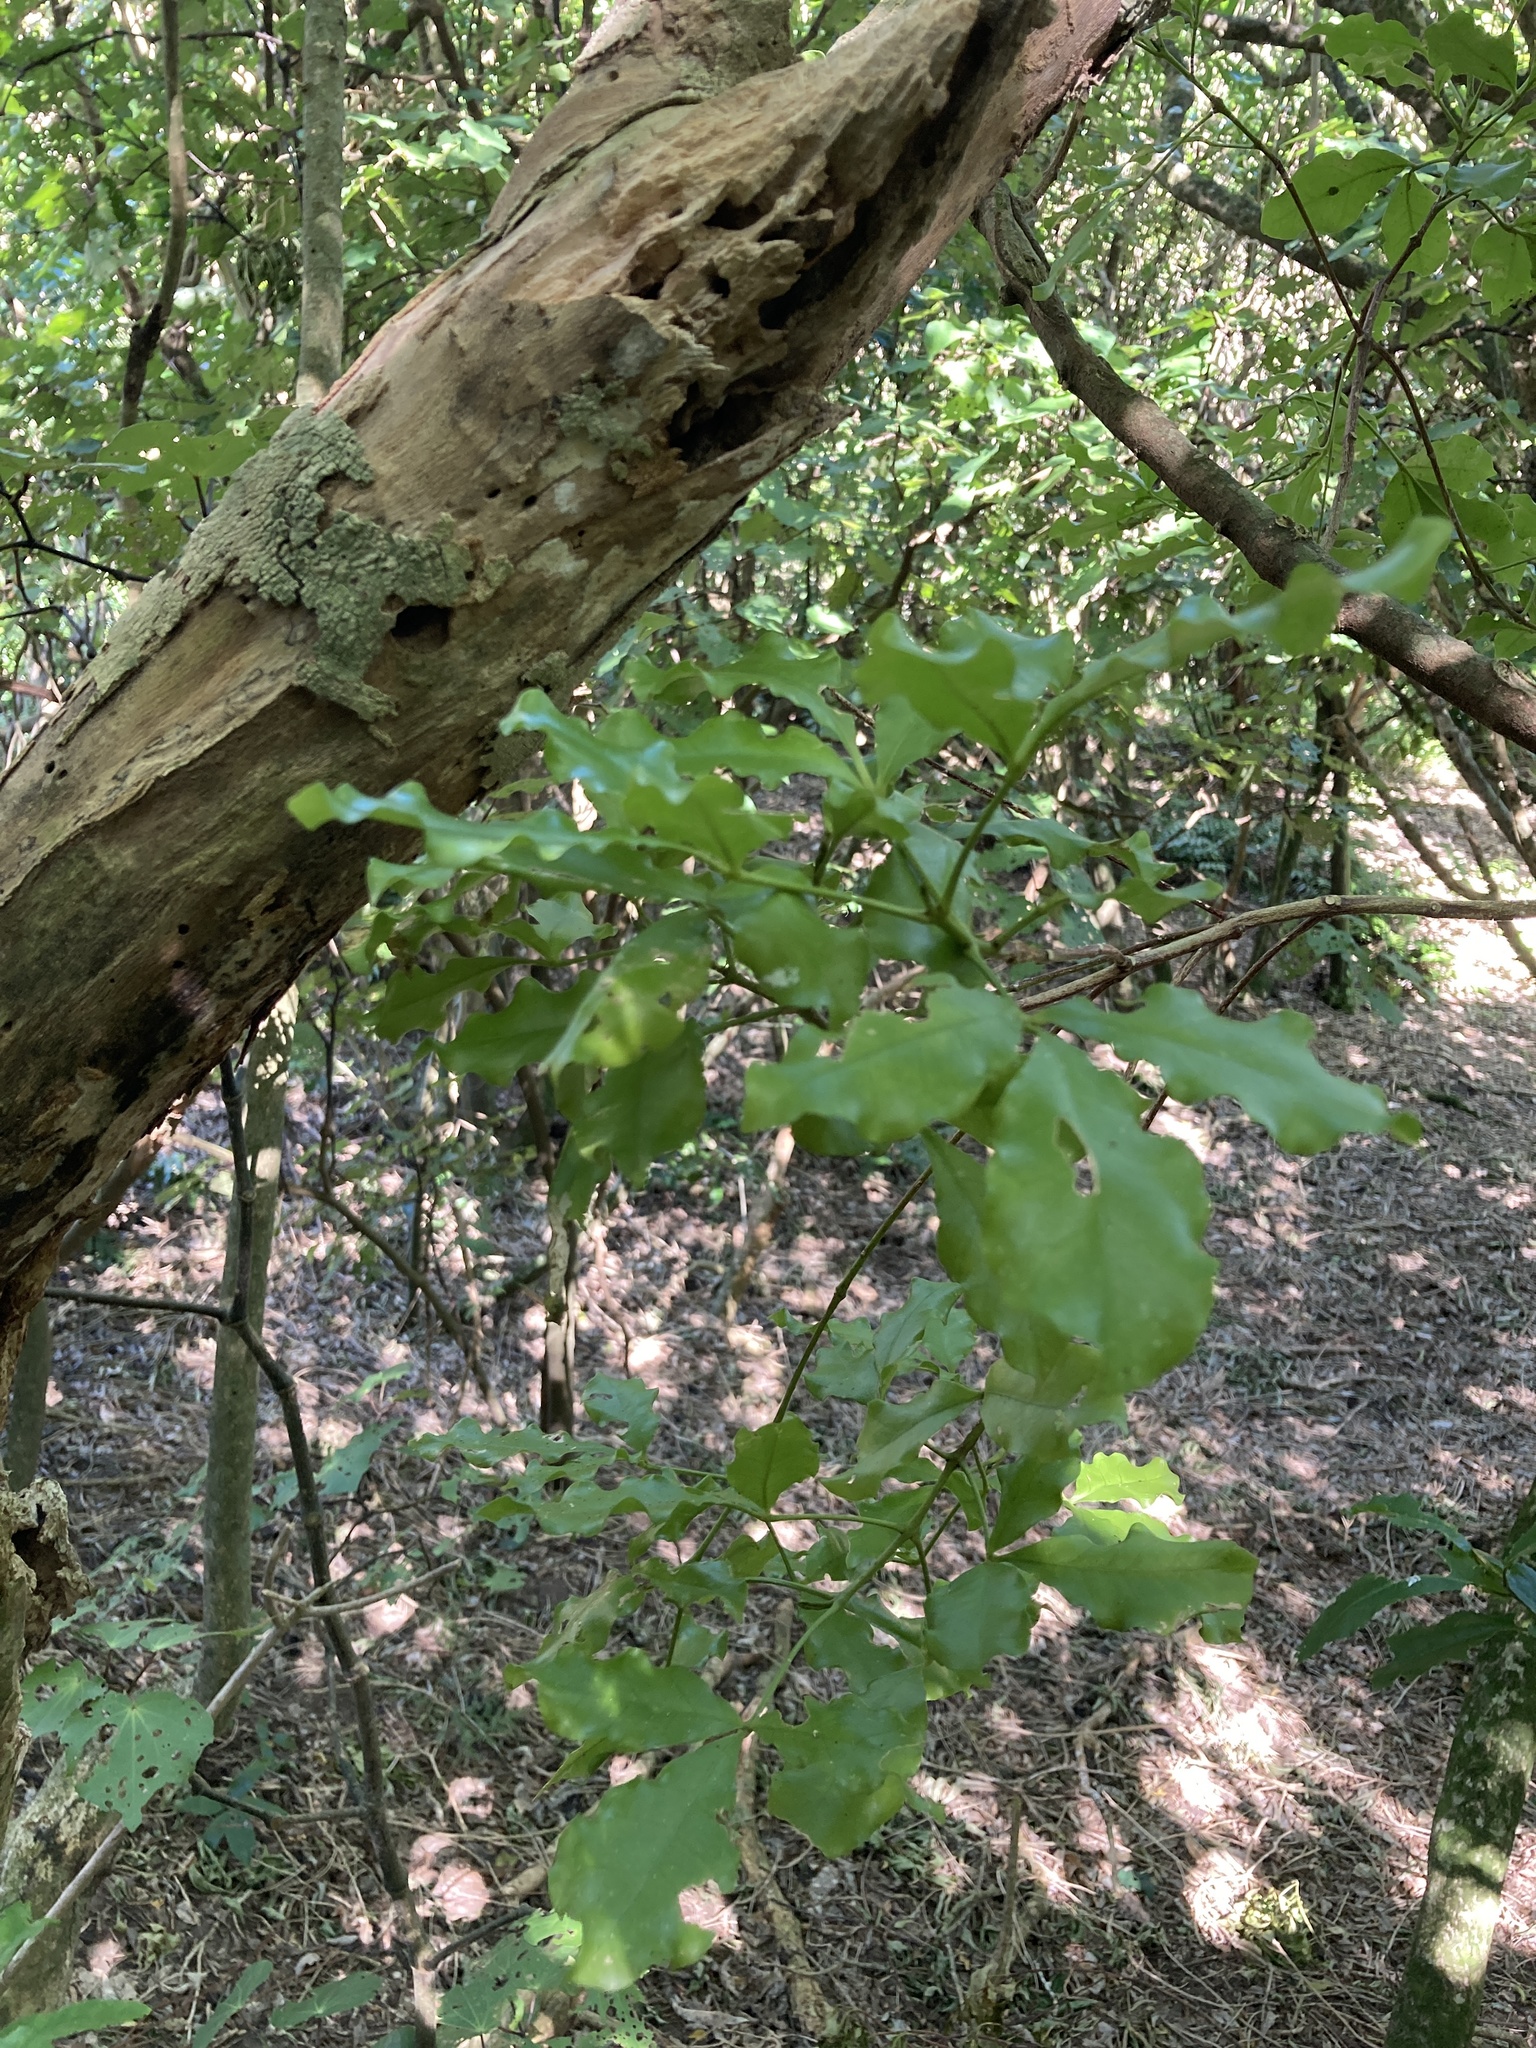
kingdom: Plantae
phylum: Tracheophyta
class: Magnoliopsida
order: Sapindales
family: Rutaceae
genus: Melicope
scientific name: Melicope ternata
